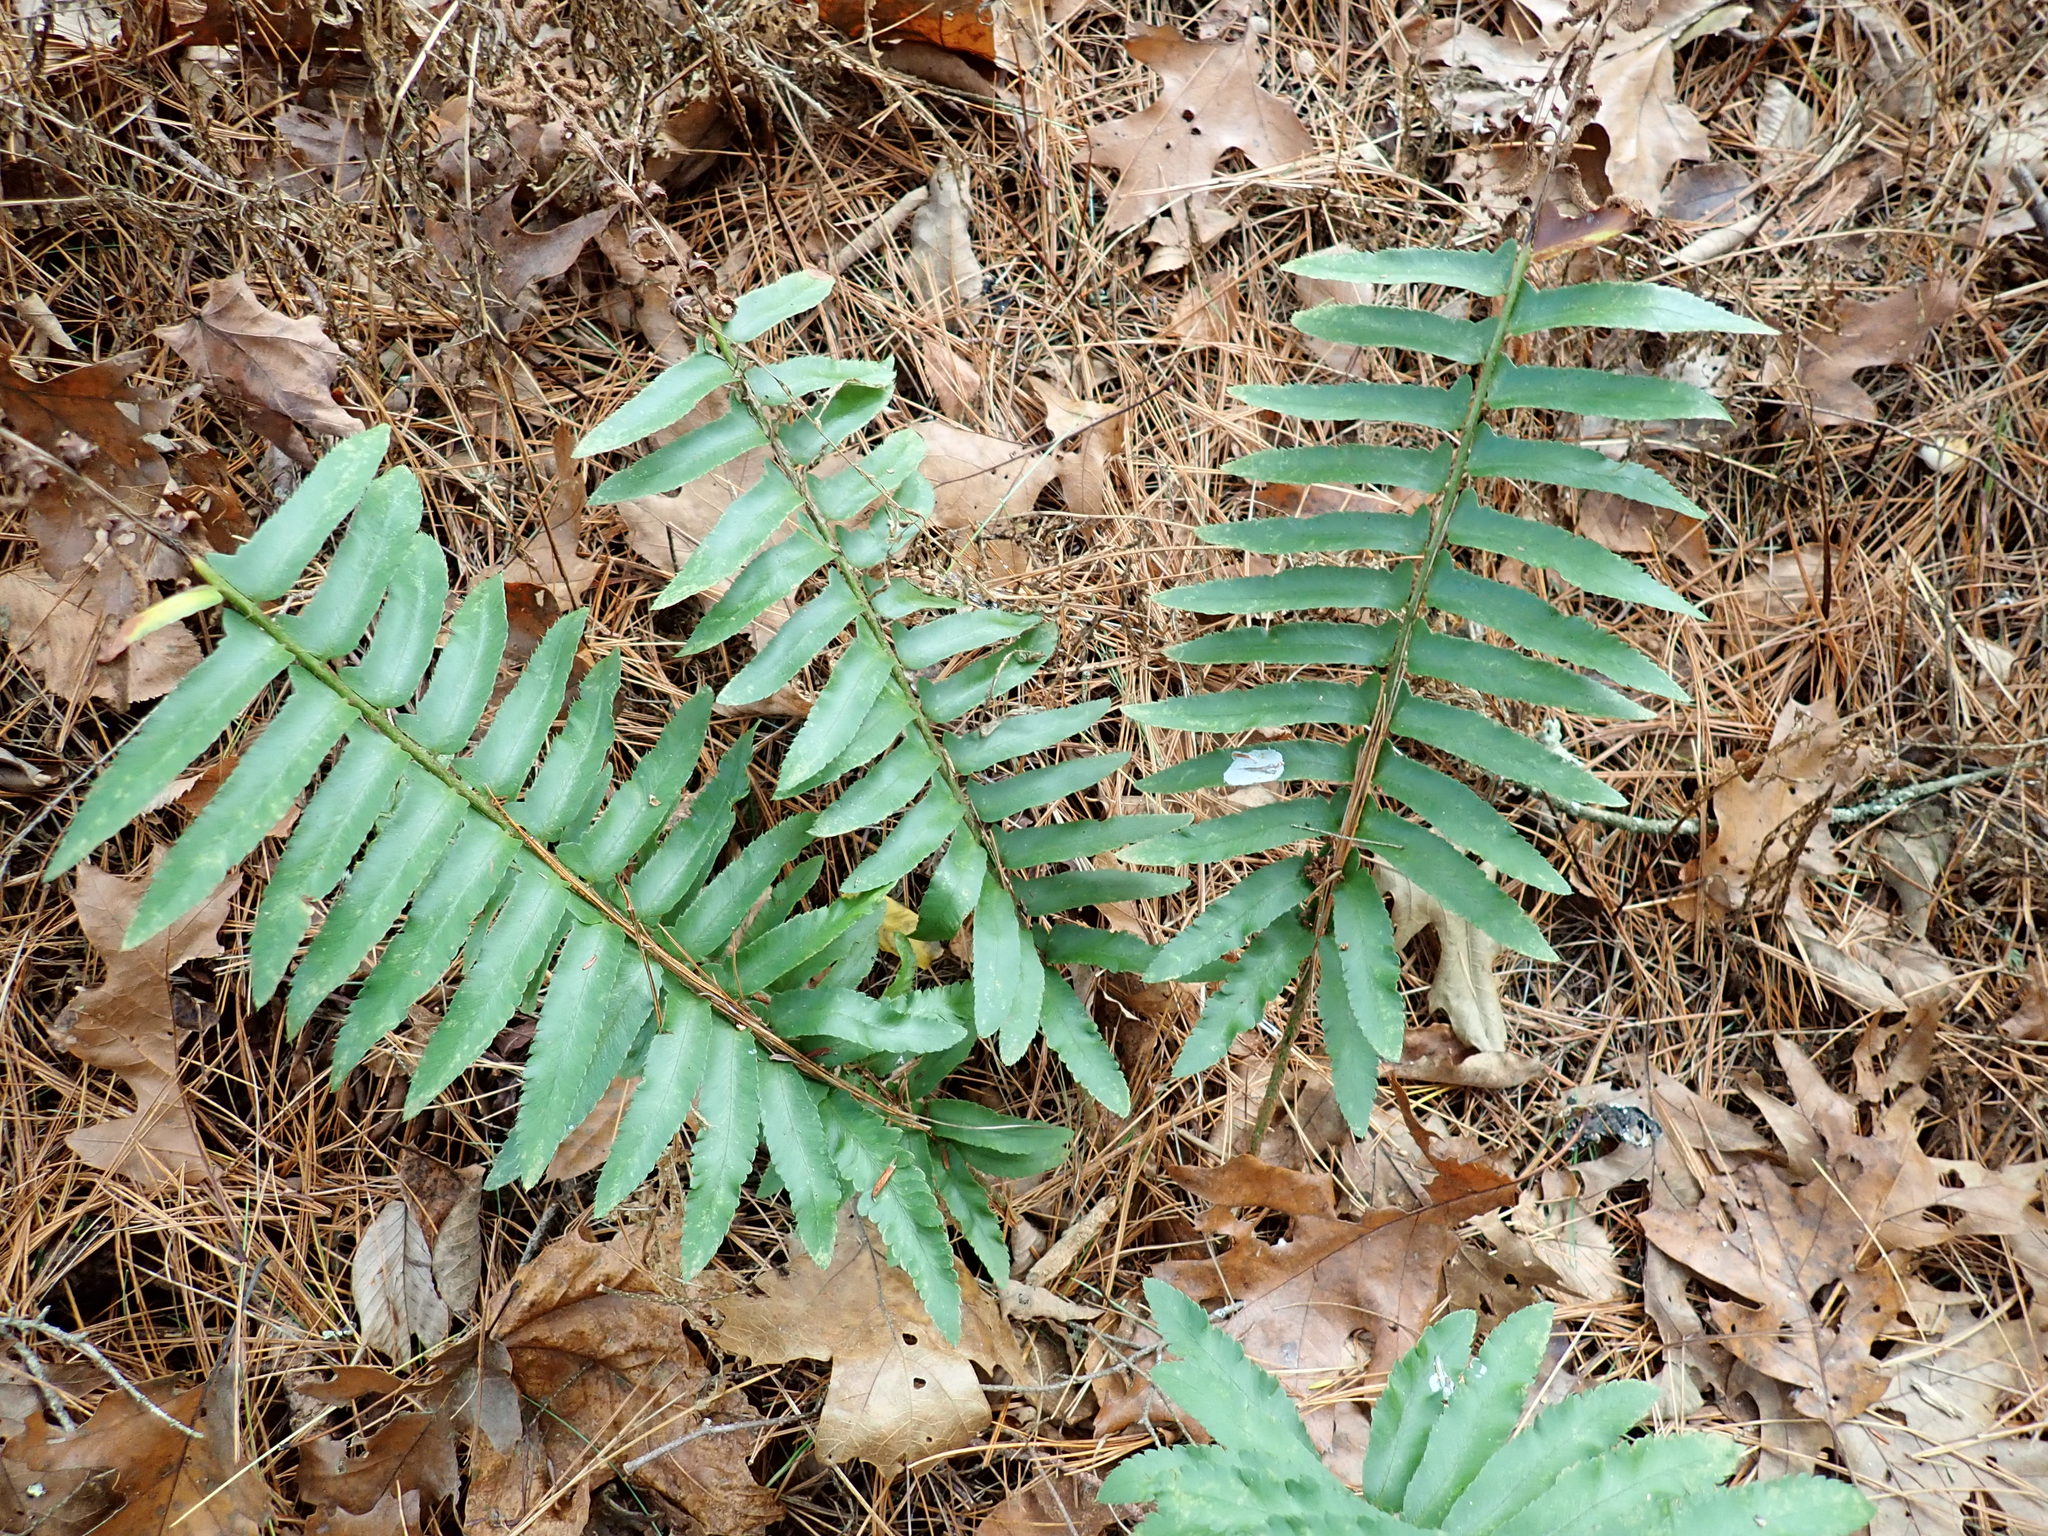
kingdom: Plantae
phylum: Tracheophyta
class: Polypodiopsida
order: Polypodiales
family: Dryopteridaceae
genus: Polystichum
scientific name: Polystichum acrostichoides
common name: Christmas fern
